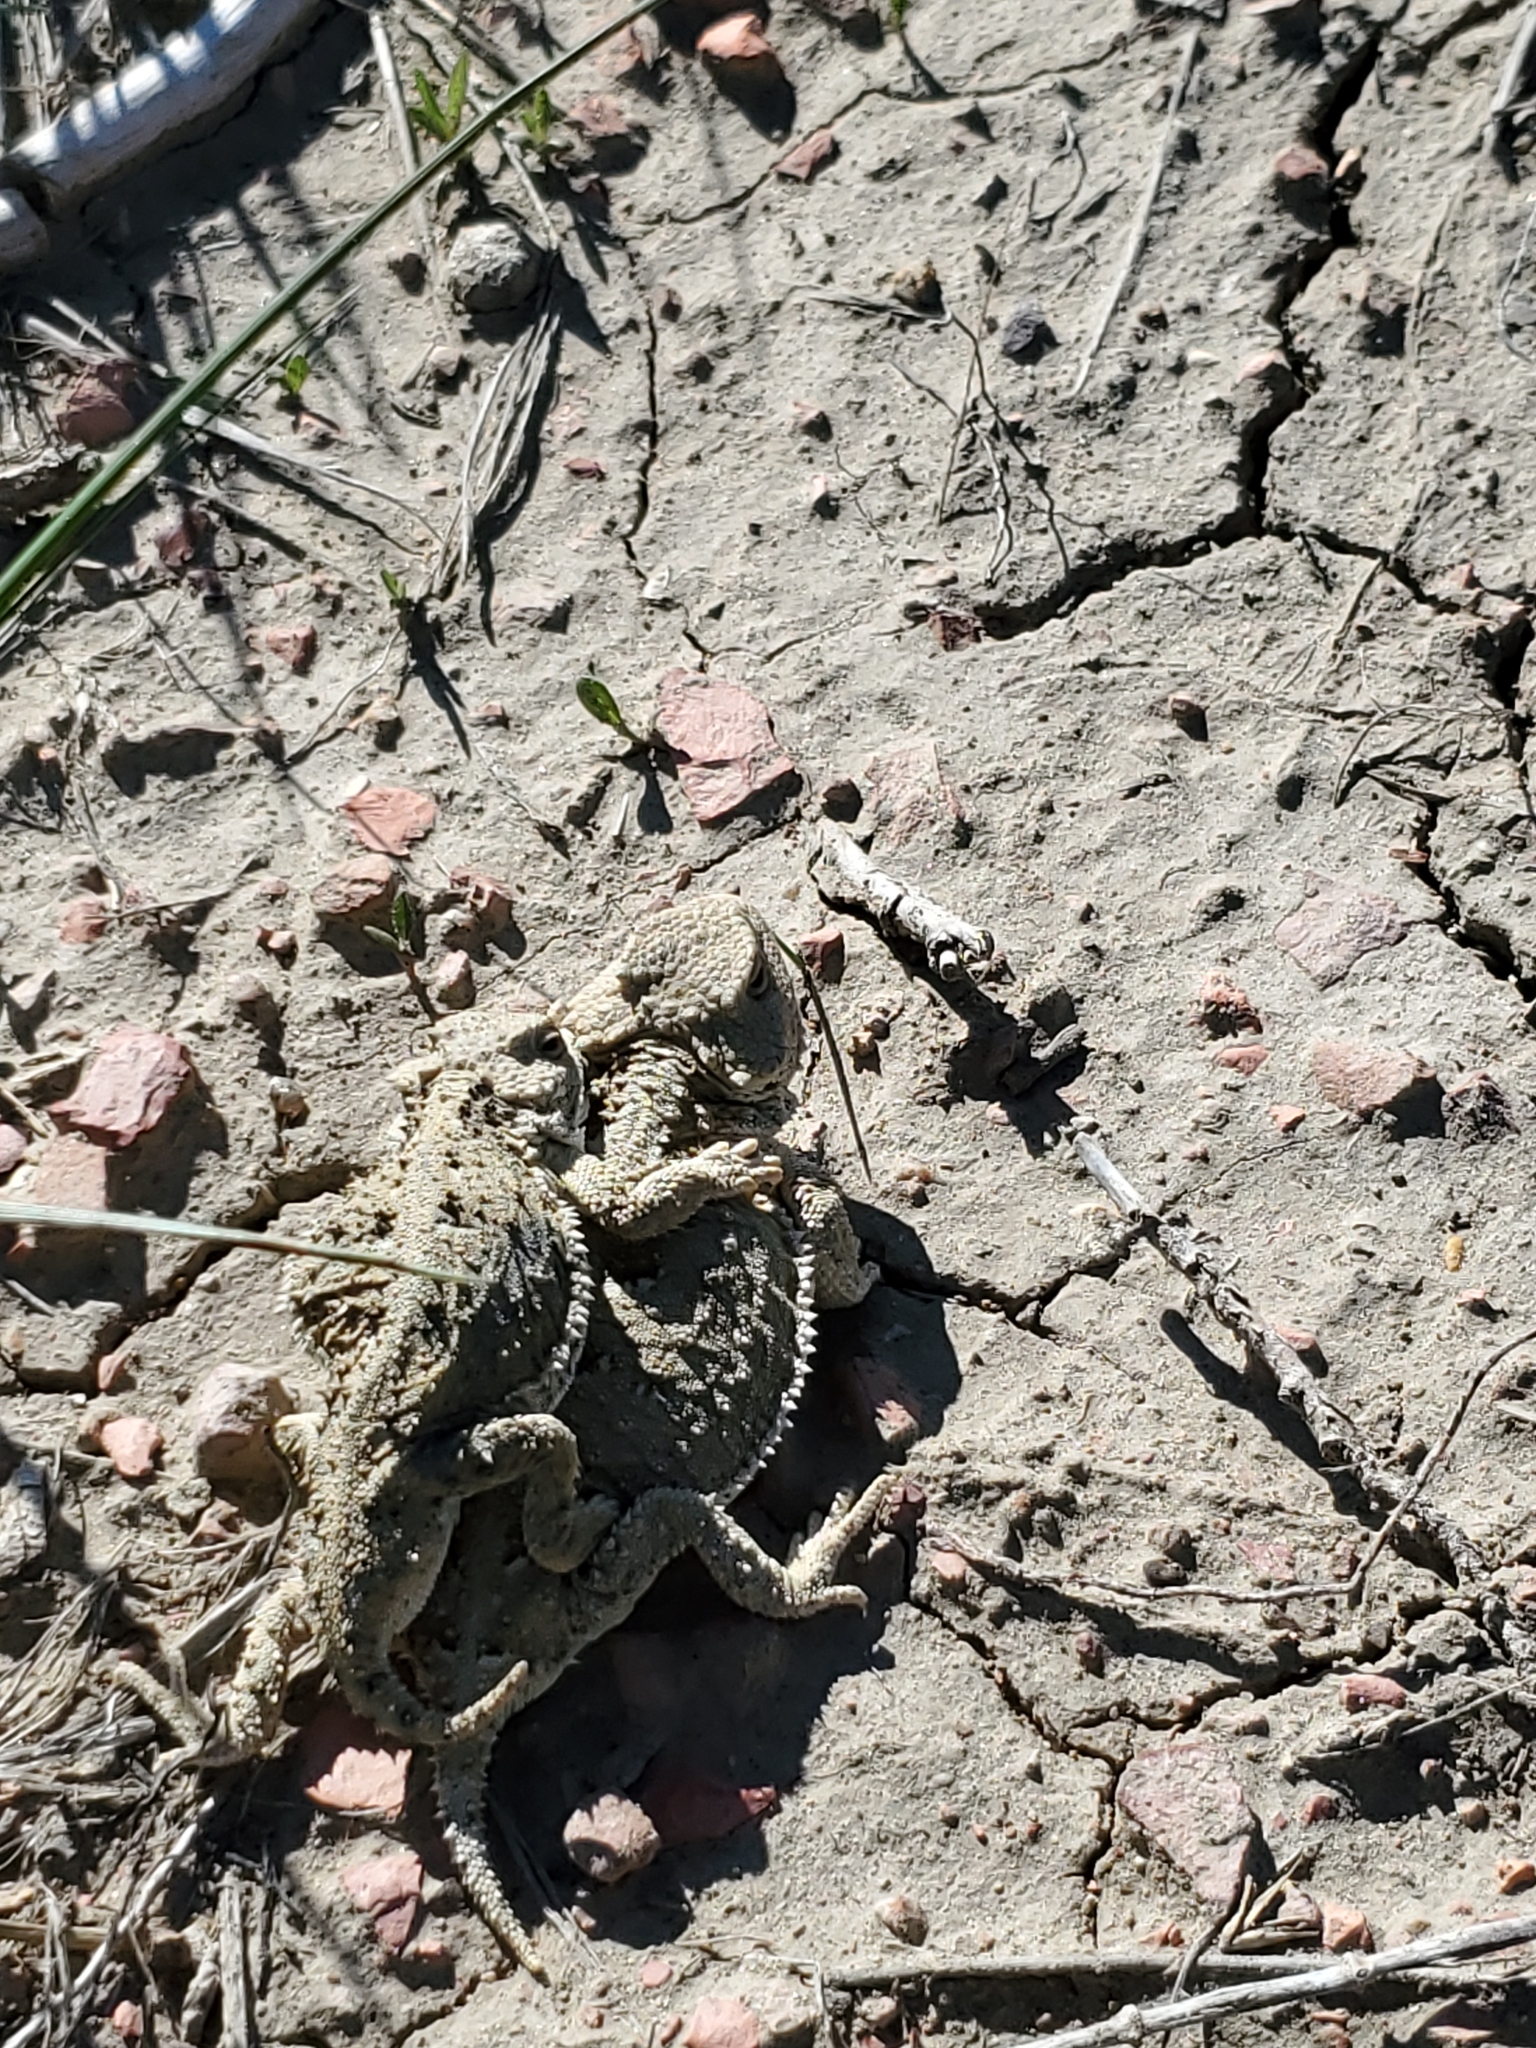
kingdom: Animalia
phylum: Chordata
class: Squamata
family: Phrynosomatidae
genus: Phrynosoma
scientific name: Phrynosoma hernandesi
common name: Greater short-horned lizard
